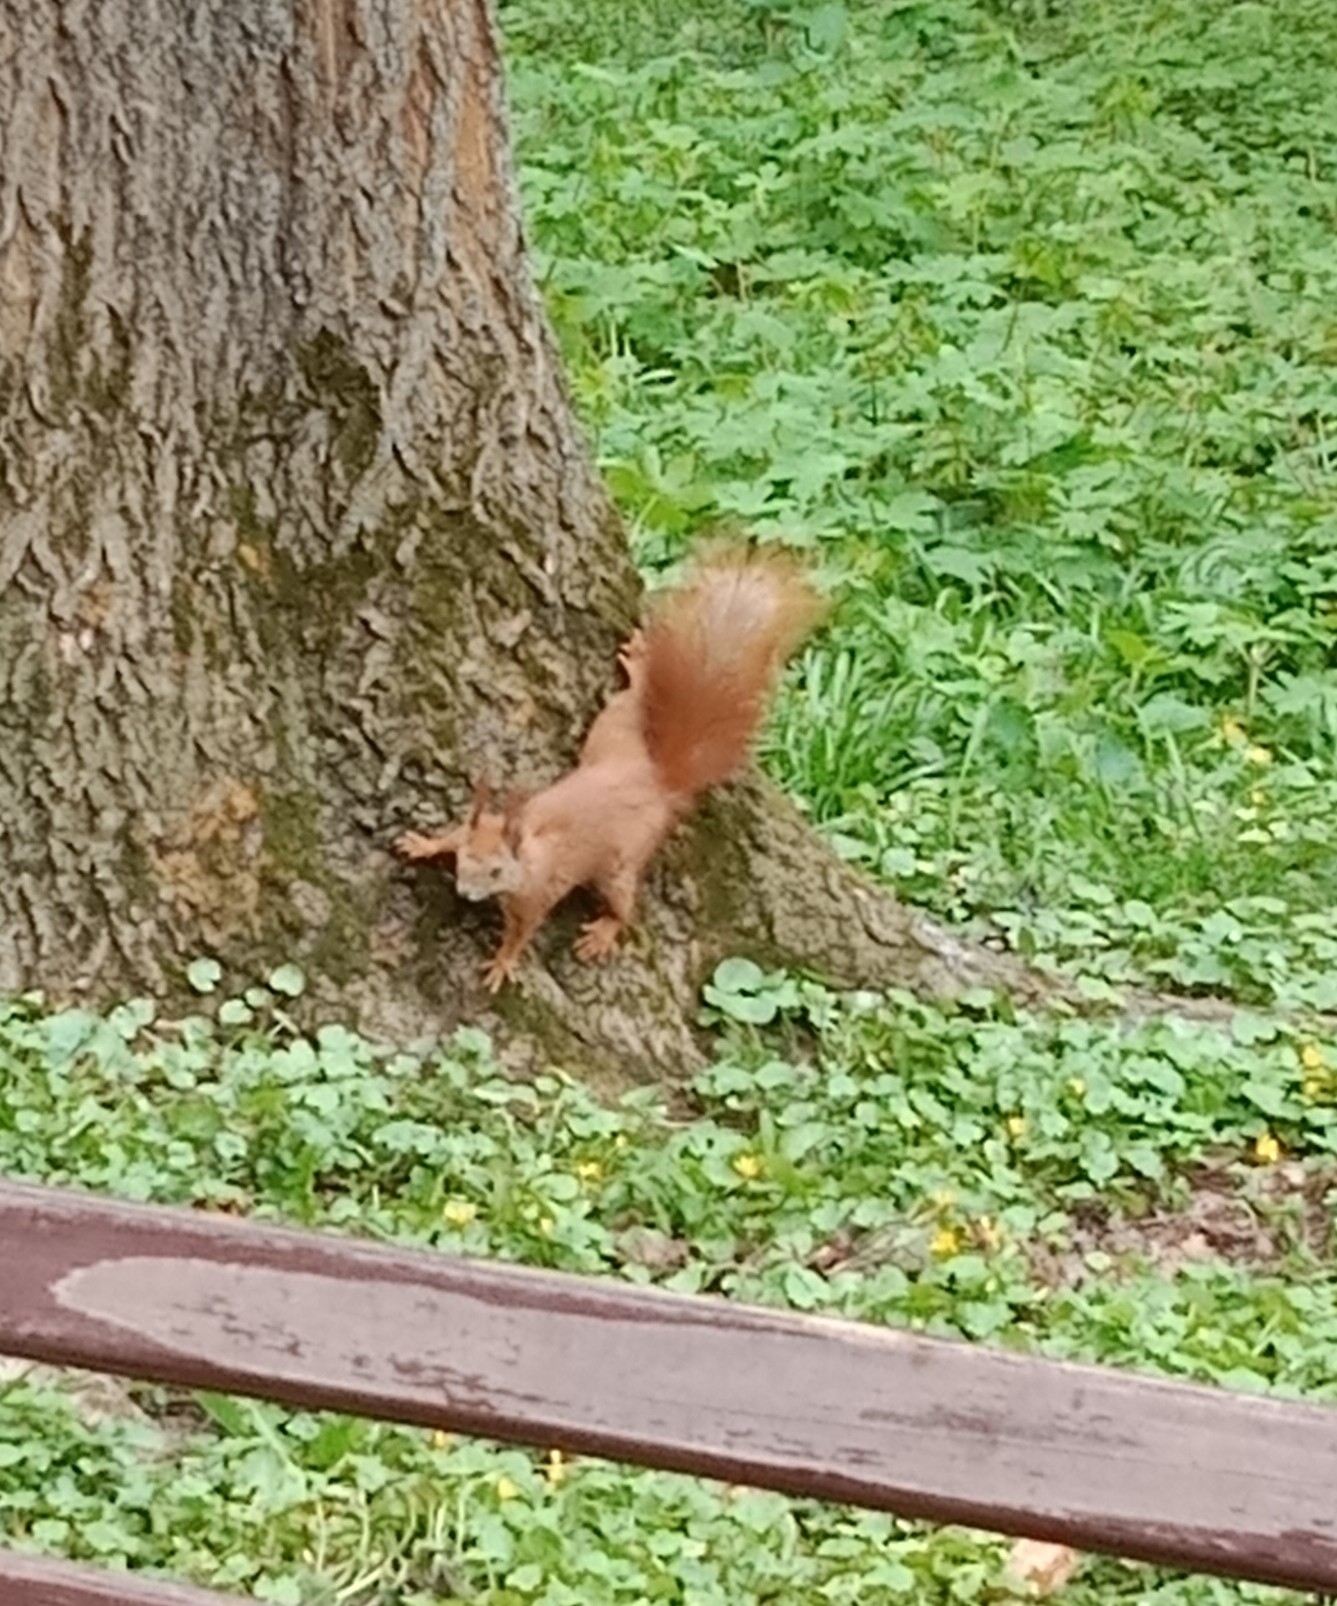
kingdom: Animalia
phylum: Chordata
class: Mammalia
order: Rodentia
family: Sciuridae
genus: Sciurus
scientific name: Sciurus vulgaris
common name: Eurasian red squirrel
